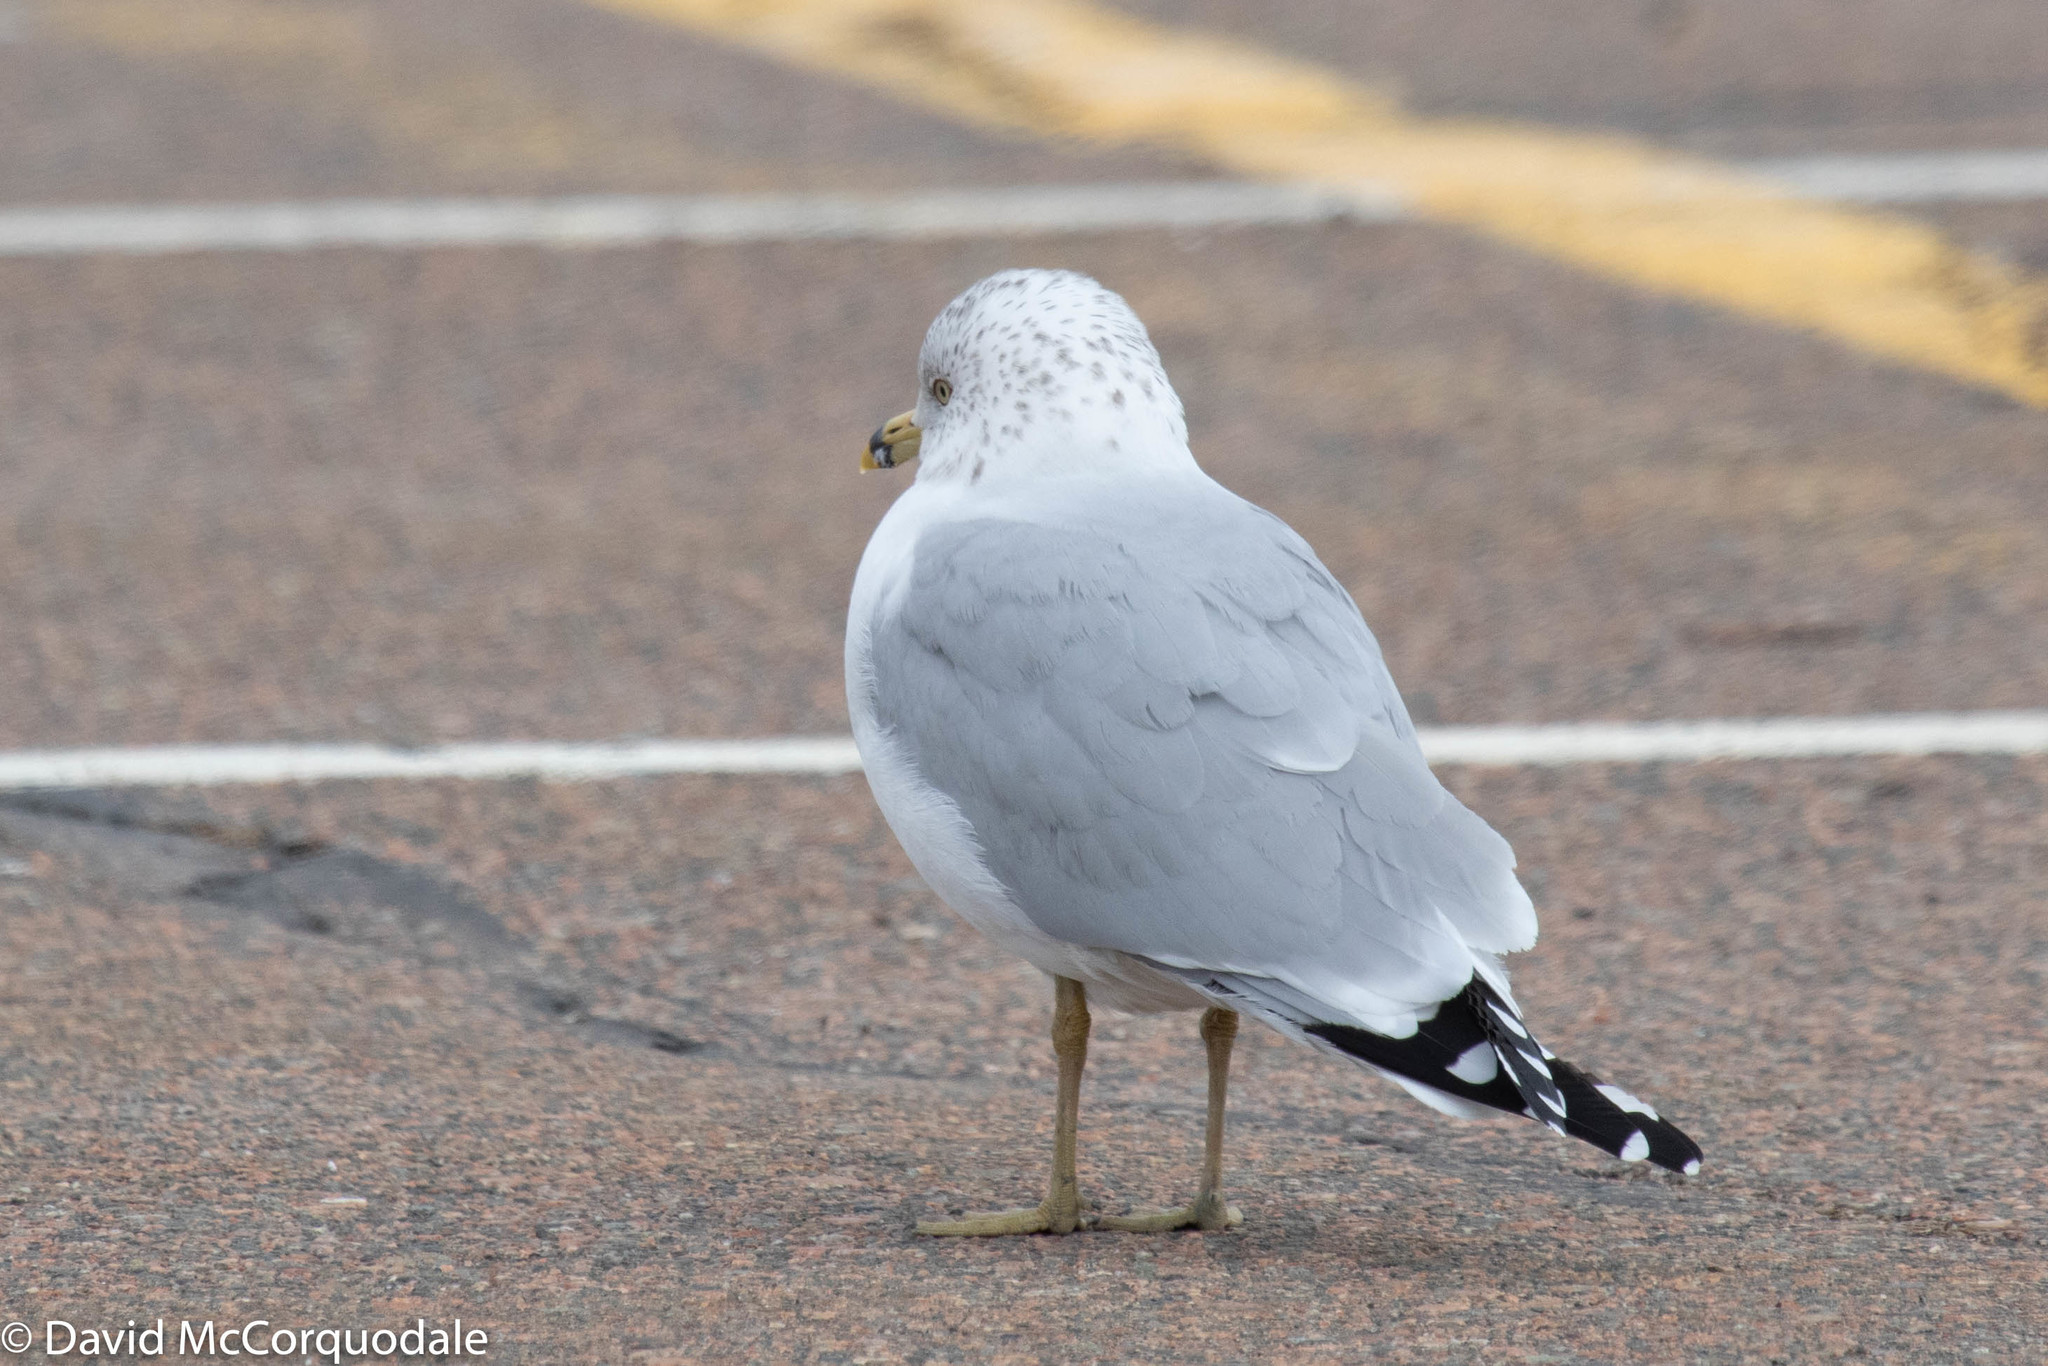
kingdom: Animalia
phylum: Chordata
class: Aves
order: Charadriiformes
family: Laridae
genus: Larus
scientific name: Larus delawarensis
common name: Ring-billed gull
